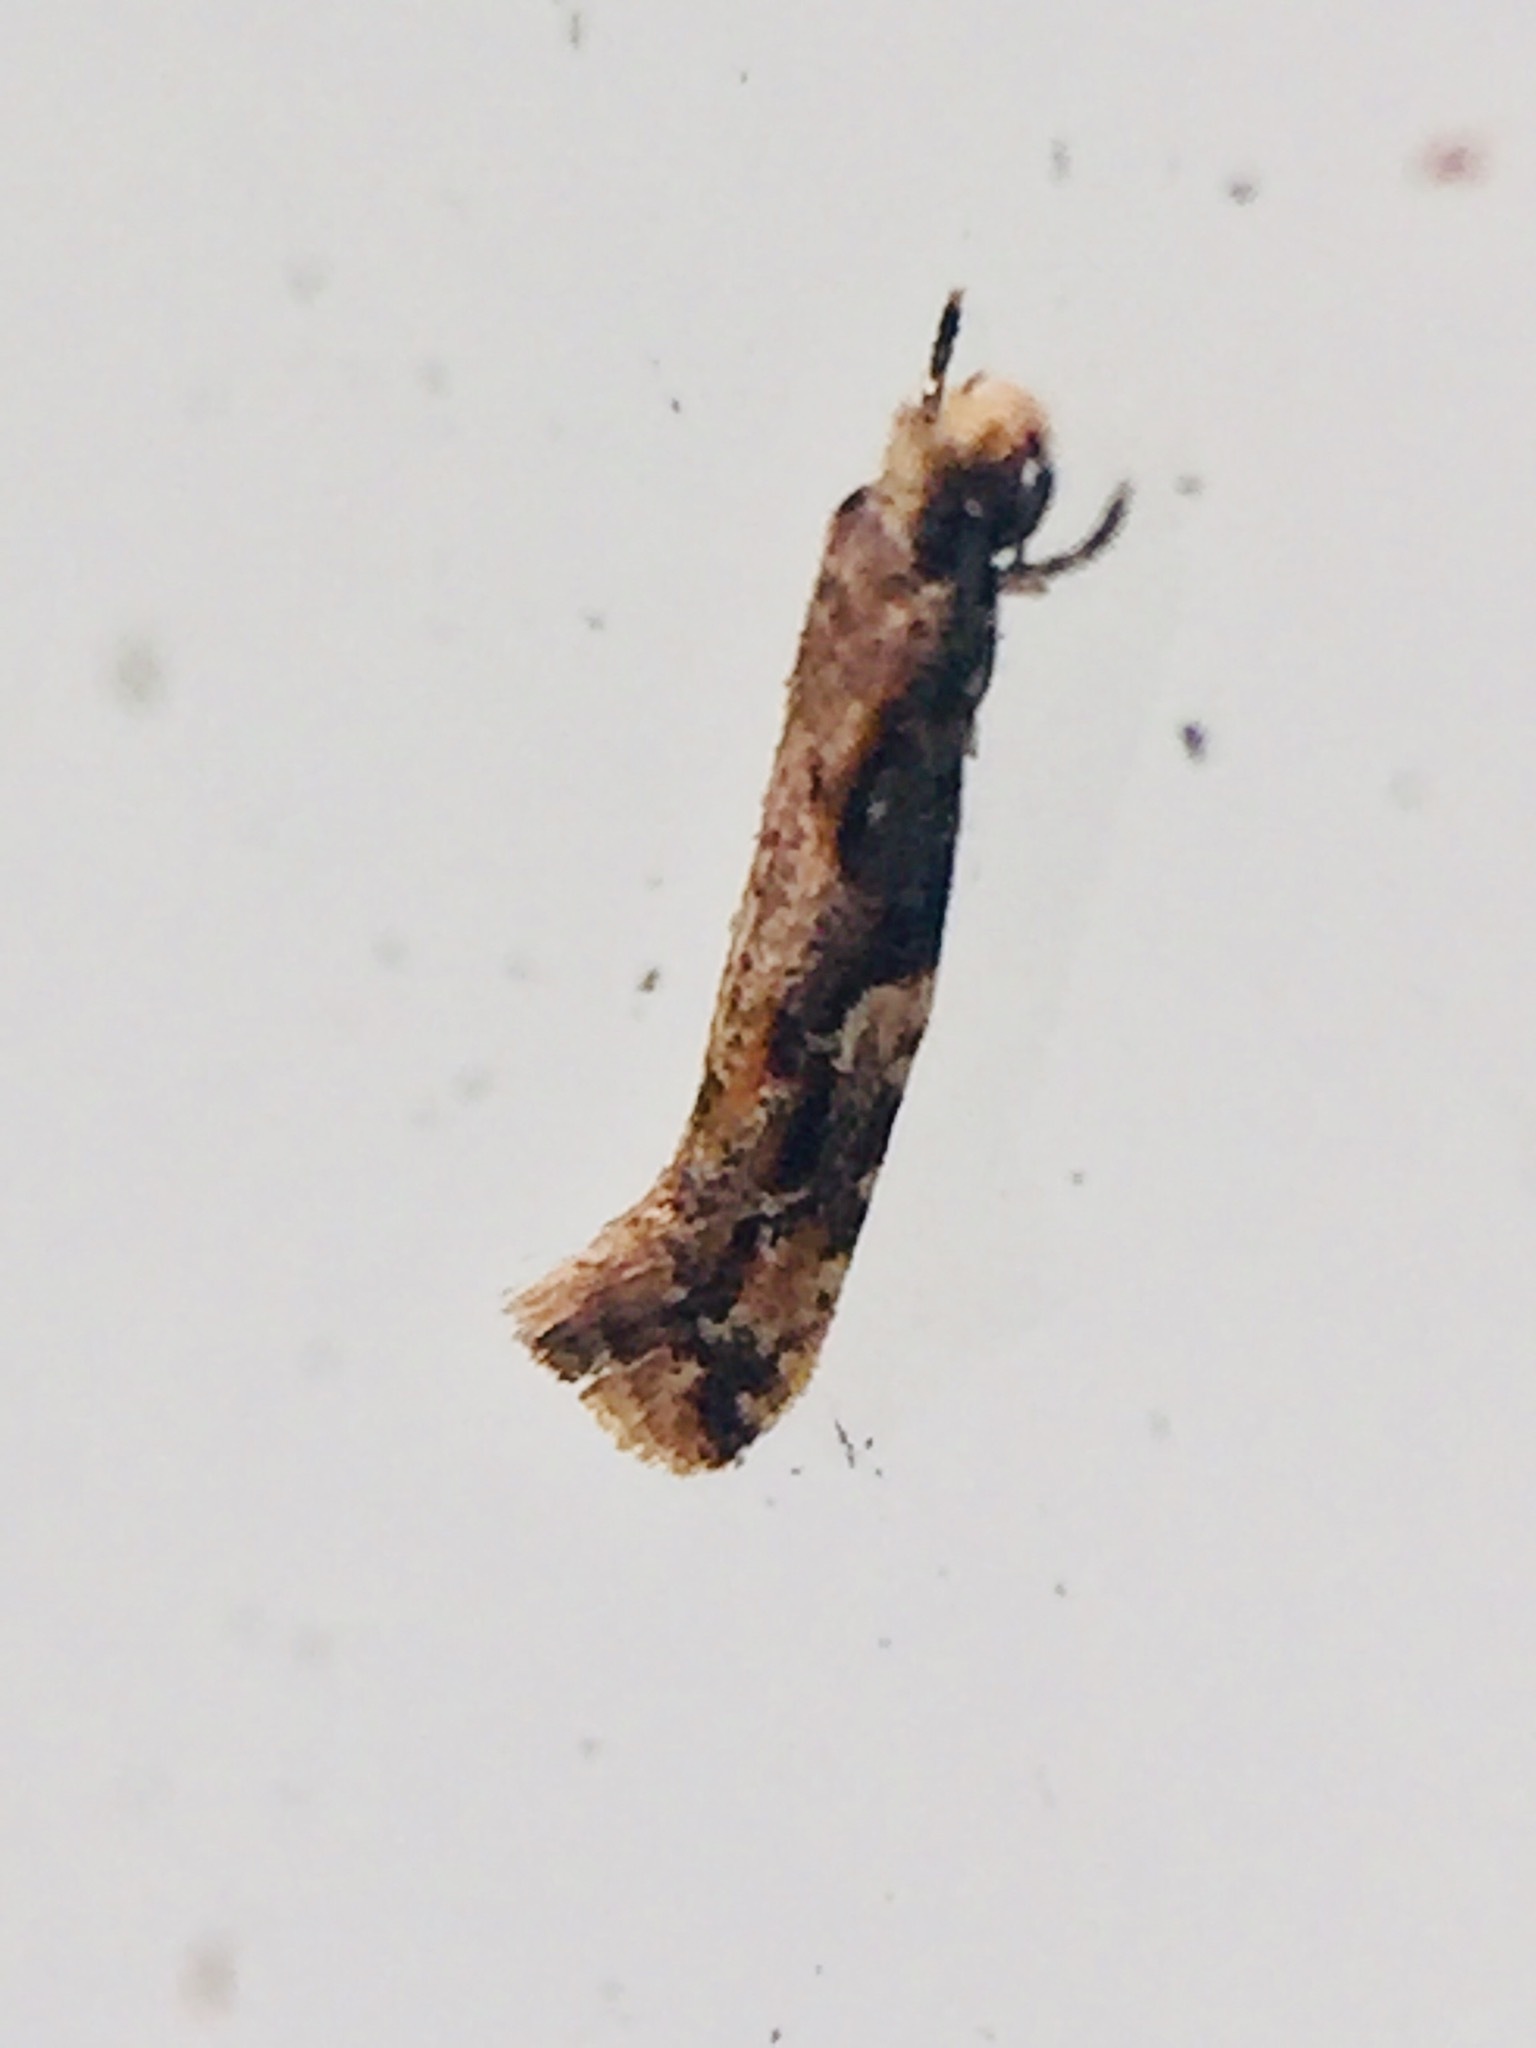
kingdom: Animalia
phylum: Arthropoda
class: Insecta
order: Lepidoptera
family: Tineidae
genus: Crypsitricha
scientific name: Crypsitricha agriopa
